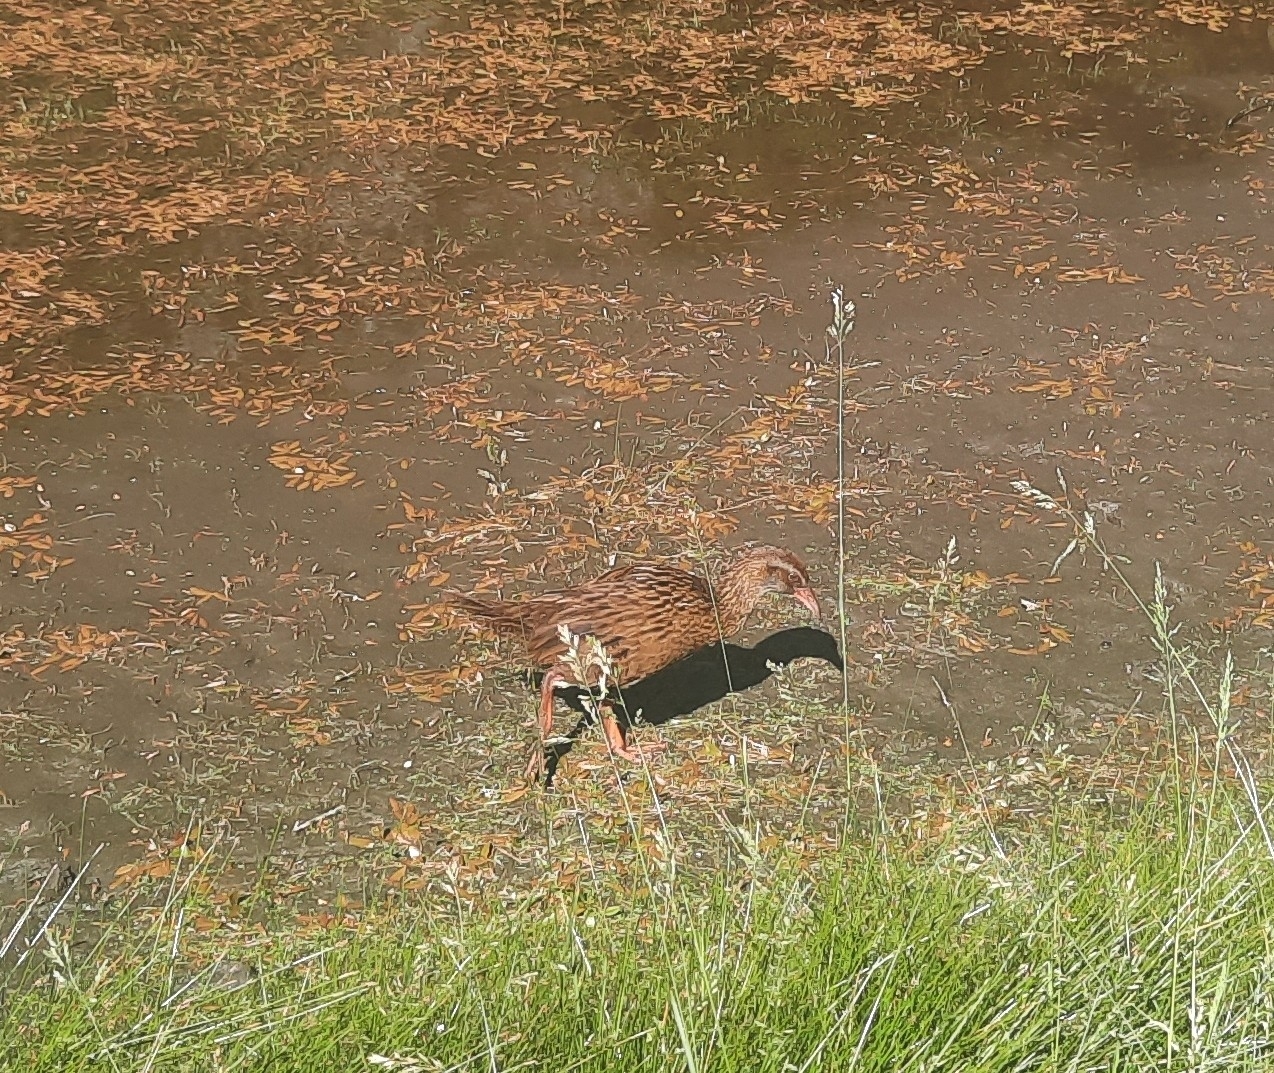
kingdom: Animalia
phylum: Chordata
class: Aves
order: Gruiformes
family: Rallidae
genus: Gallirallus
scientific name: Gallirallus australis
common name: Weka
